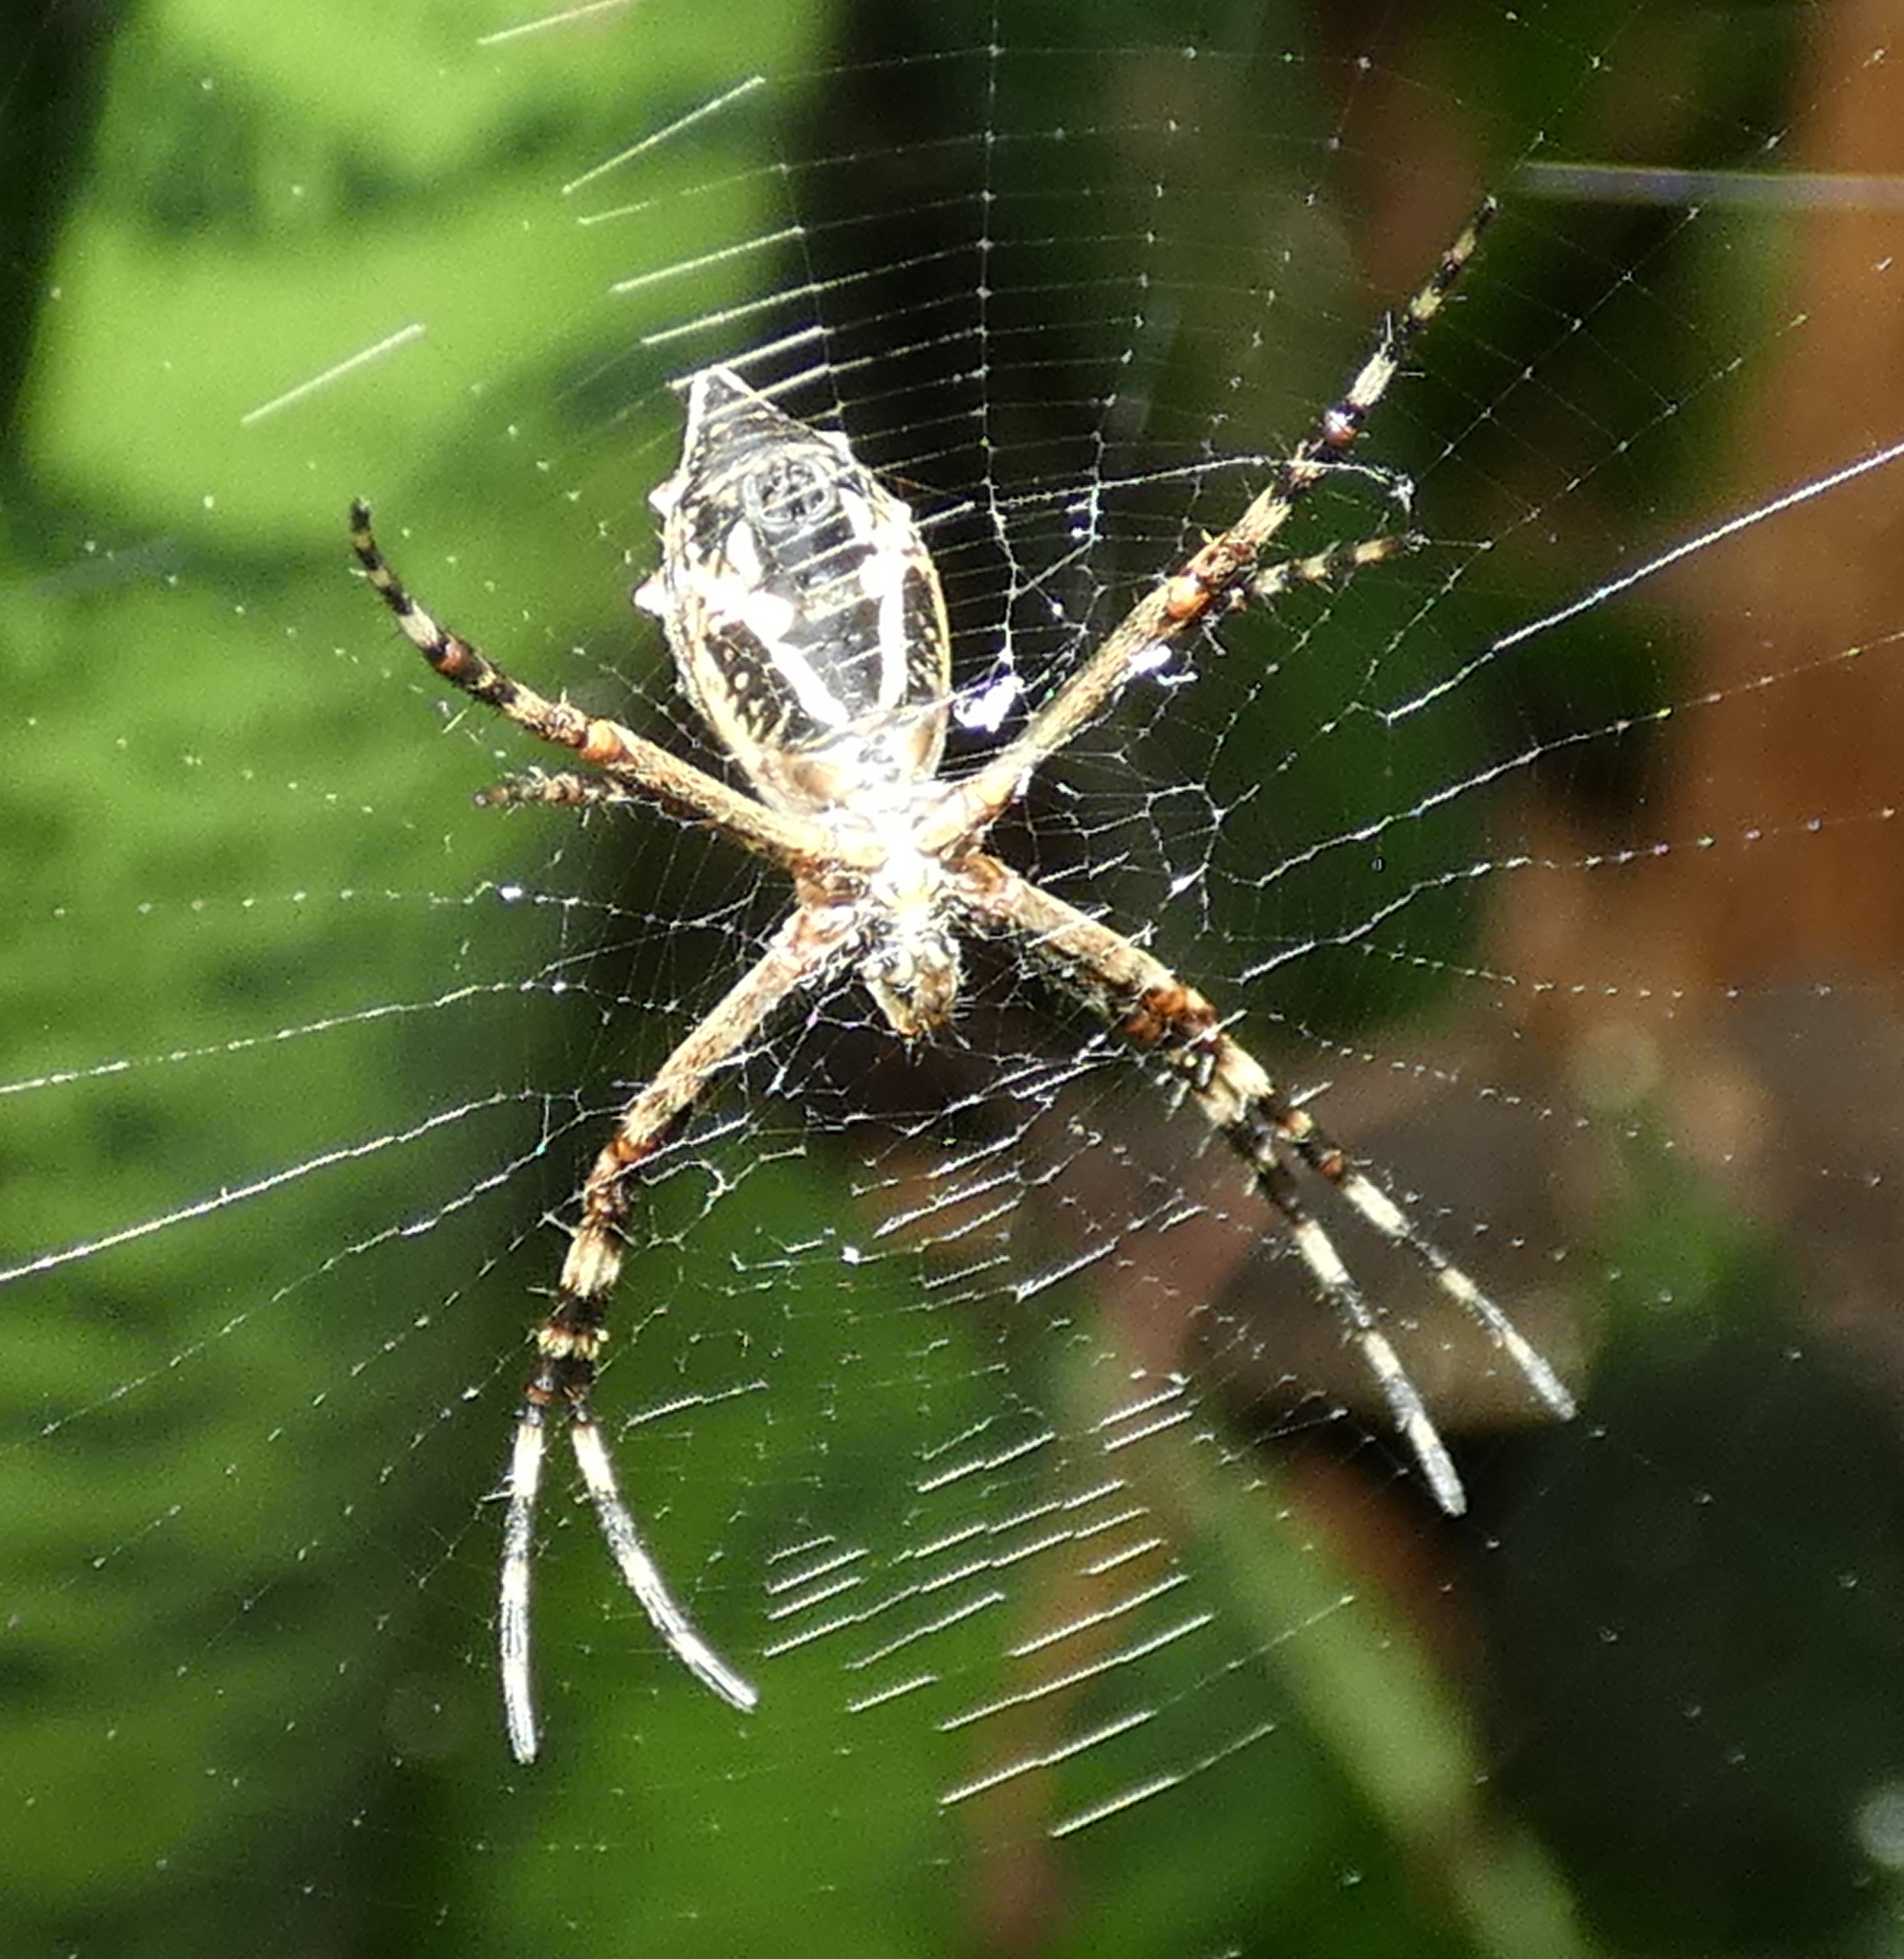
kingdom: Animalia
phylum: Arthropoda
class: Arachnida
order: Araneae
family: Araneidae
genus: Argiope
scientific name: Argiope argentata
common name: Orb weavers
